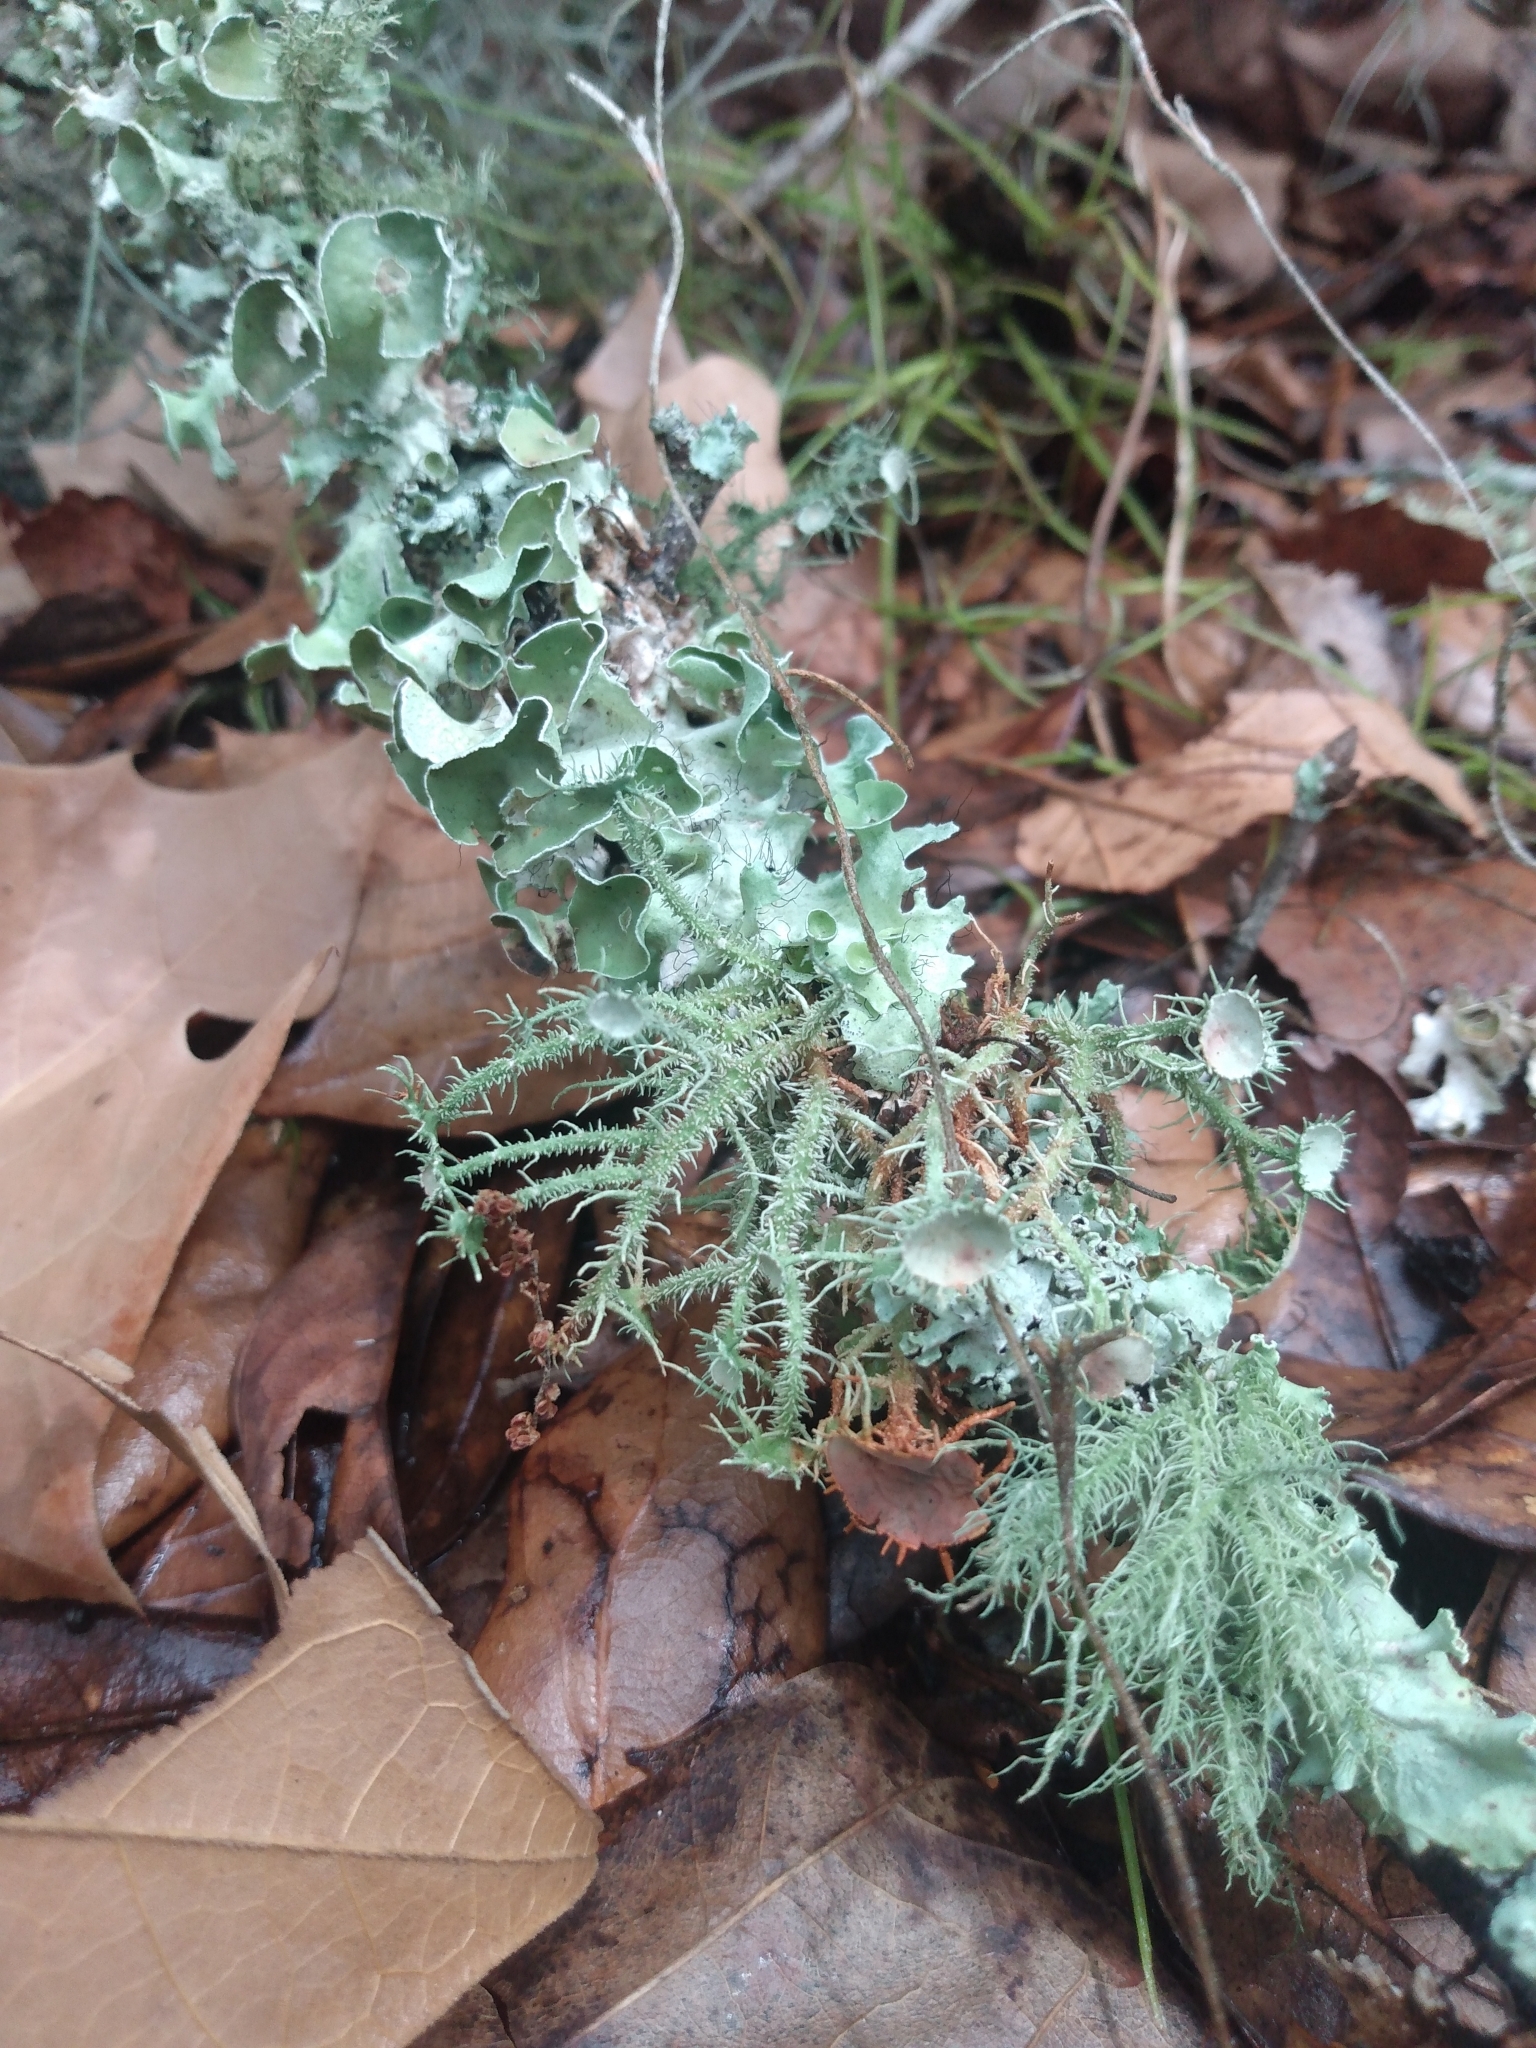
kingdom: Fungi
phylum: Ascomycota
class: Lecanoromycetes
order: Lecanorales
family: Parmeliaceae
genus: Usnea
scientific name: Usnea strigosa
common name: Bushy beard lichen
